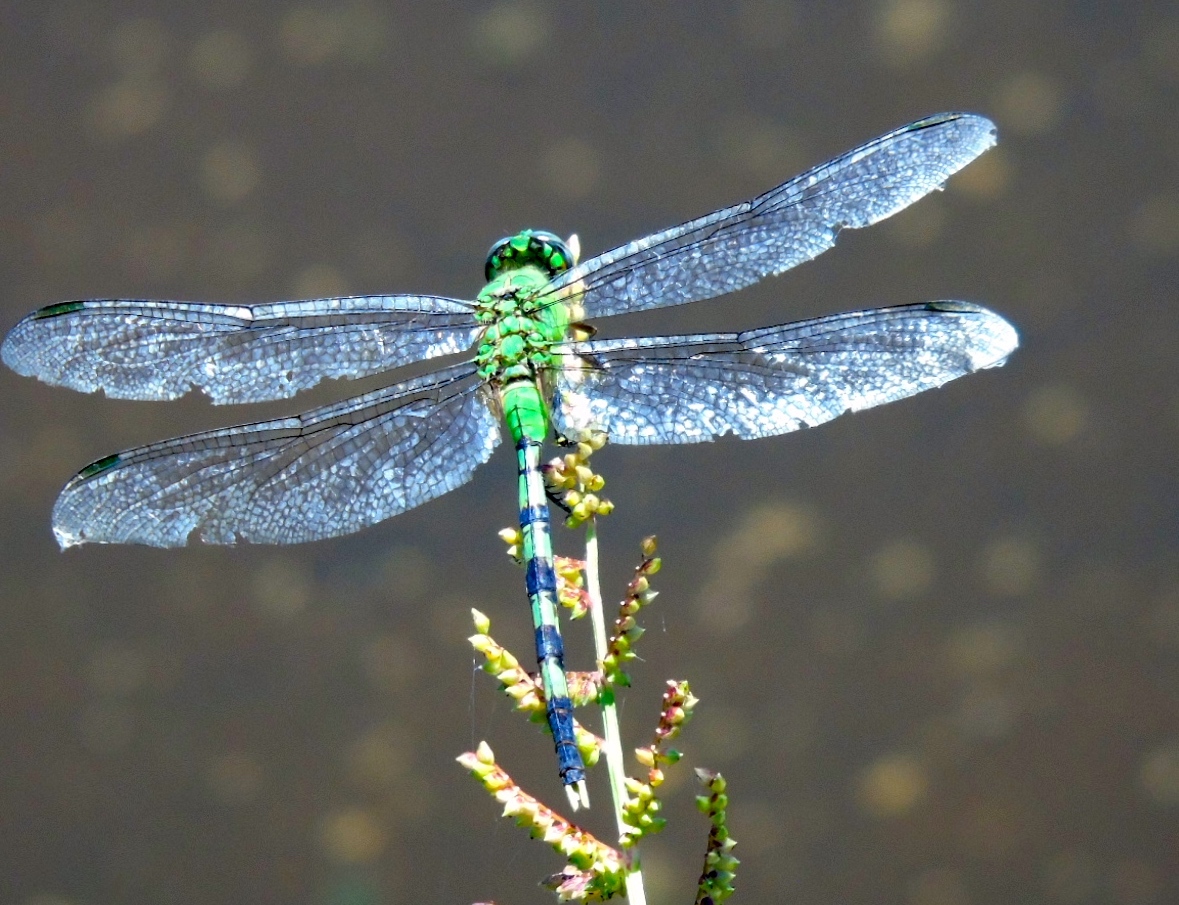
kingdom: Animalia
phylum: Arthropoda
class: Insecta
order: Odonata
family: Libellulidae
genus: Erythemis
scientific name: Erythemis vesiculosa
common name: Great pondhawk
